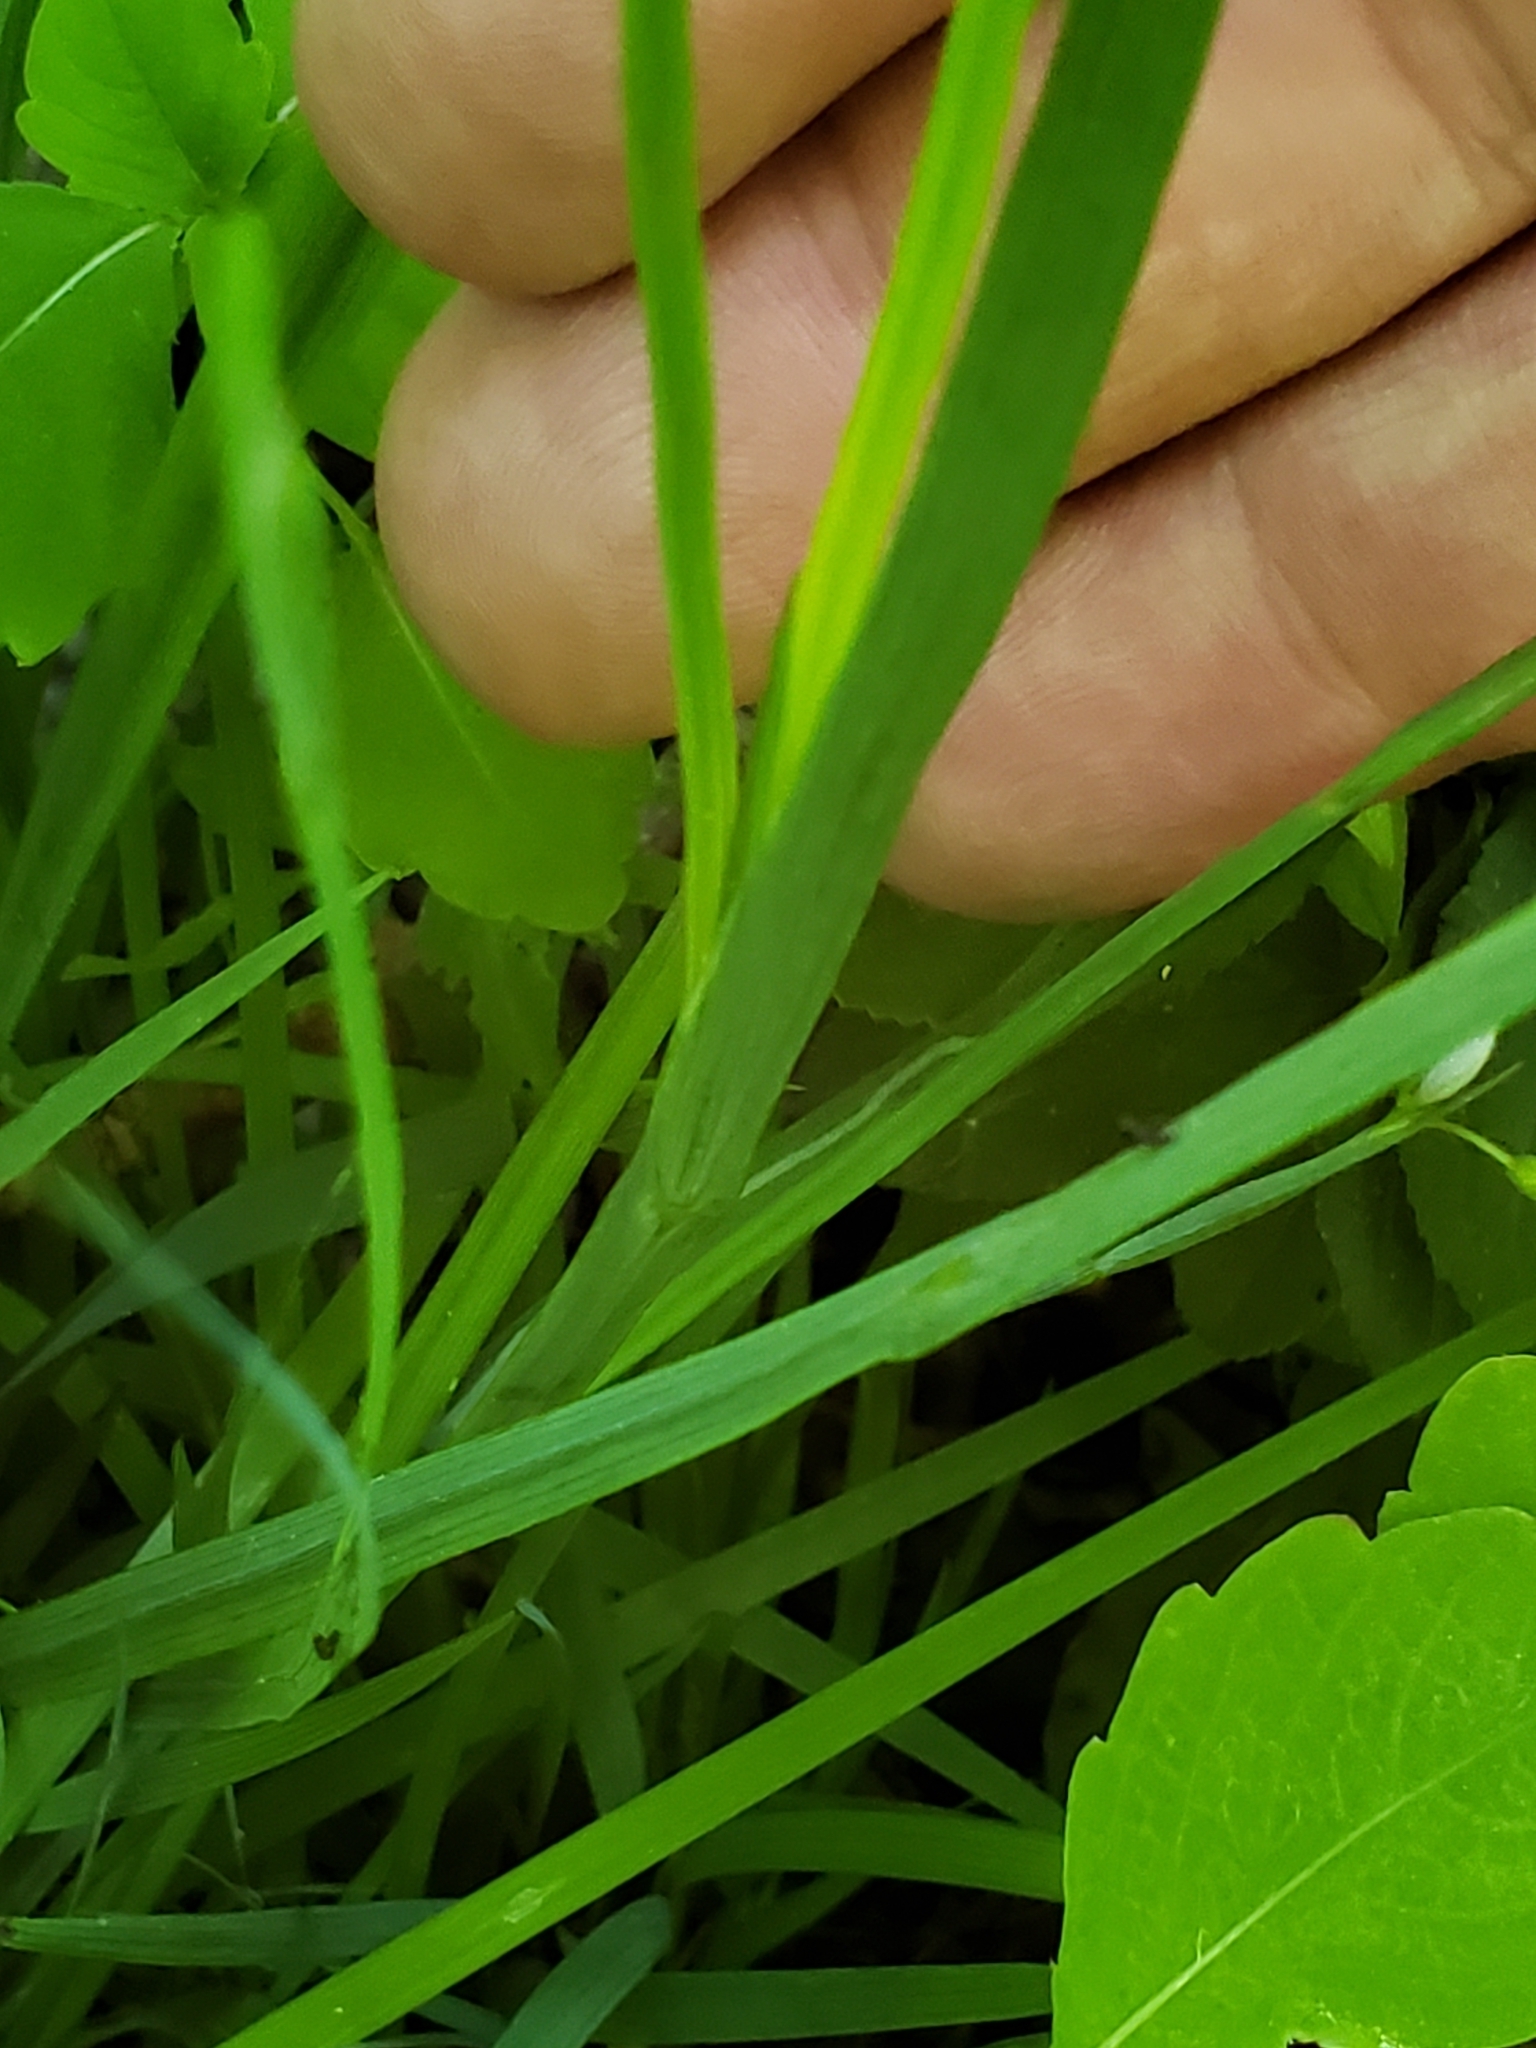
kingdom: Plantae
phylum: Tracheophyta
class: Liliopsida
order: Asparagales
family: Iridaceae
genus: Sisyrinchium
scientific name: Sisyrinchium angustifolium
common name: Narrow-leaf blue-eyed-grass
